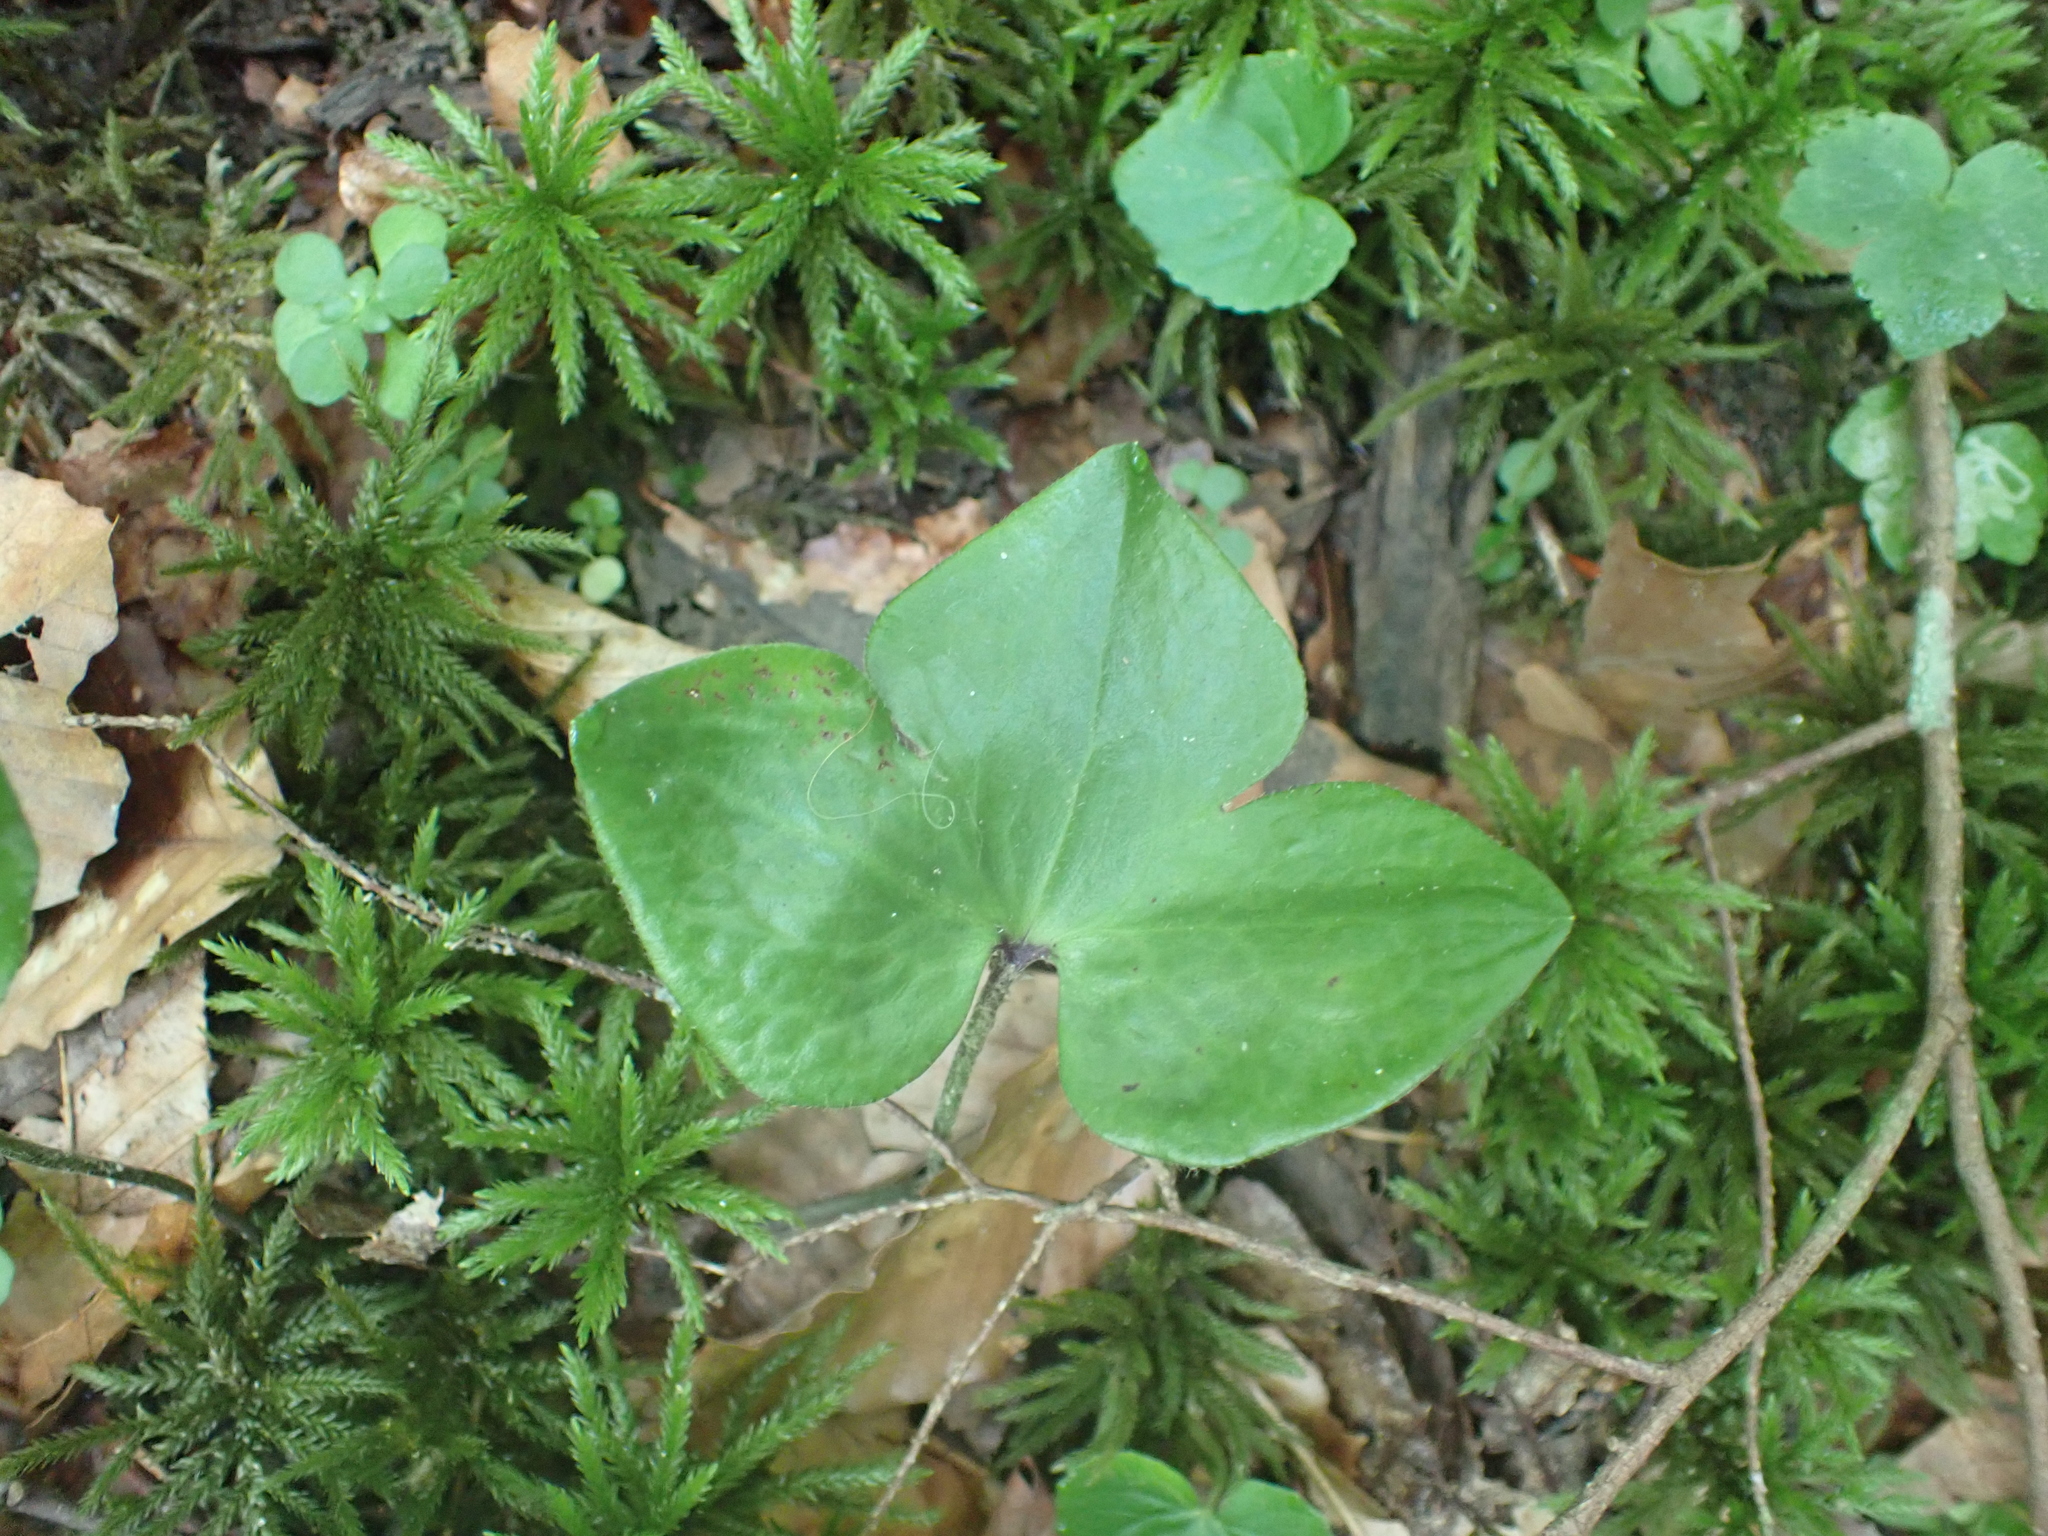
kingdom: Plantae
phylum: Tracheophyta
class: Magnoliopsida
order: Ranunculales
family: Ranunculaceae
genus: Hepatica
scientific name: Hepatica acutiloba
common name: Sharp-lobed hepatica
